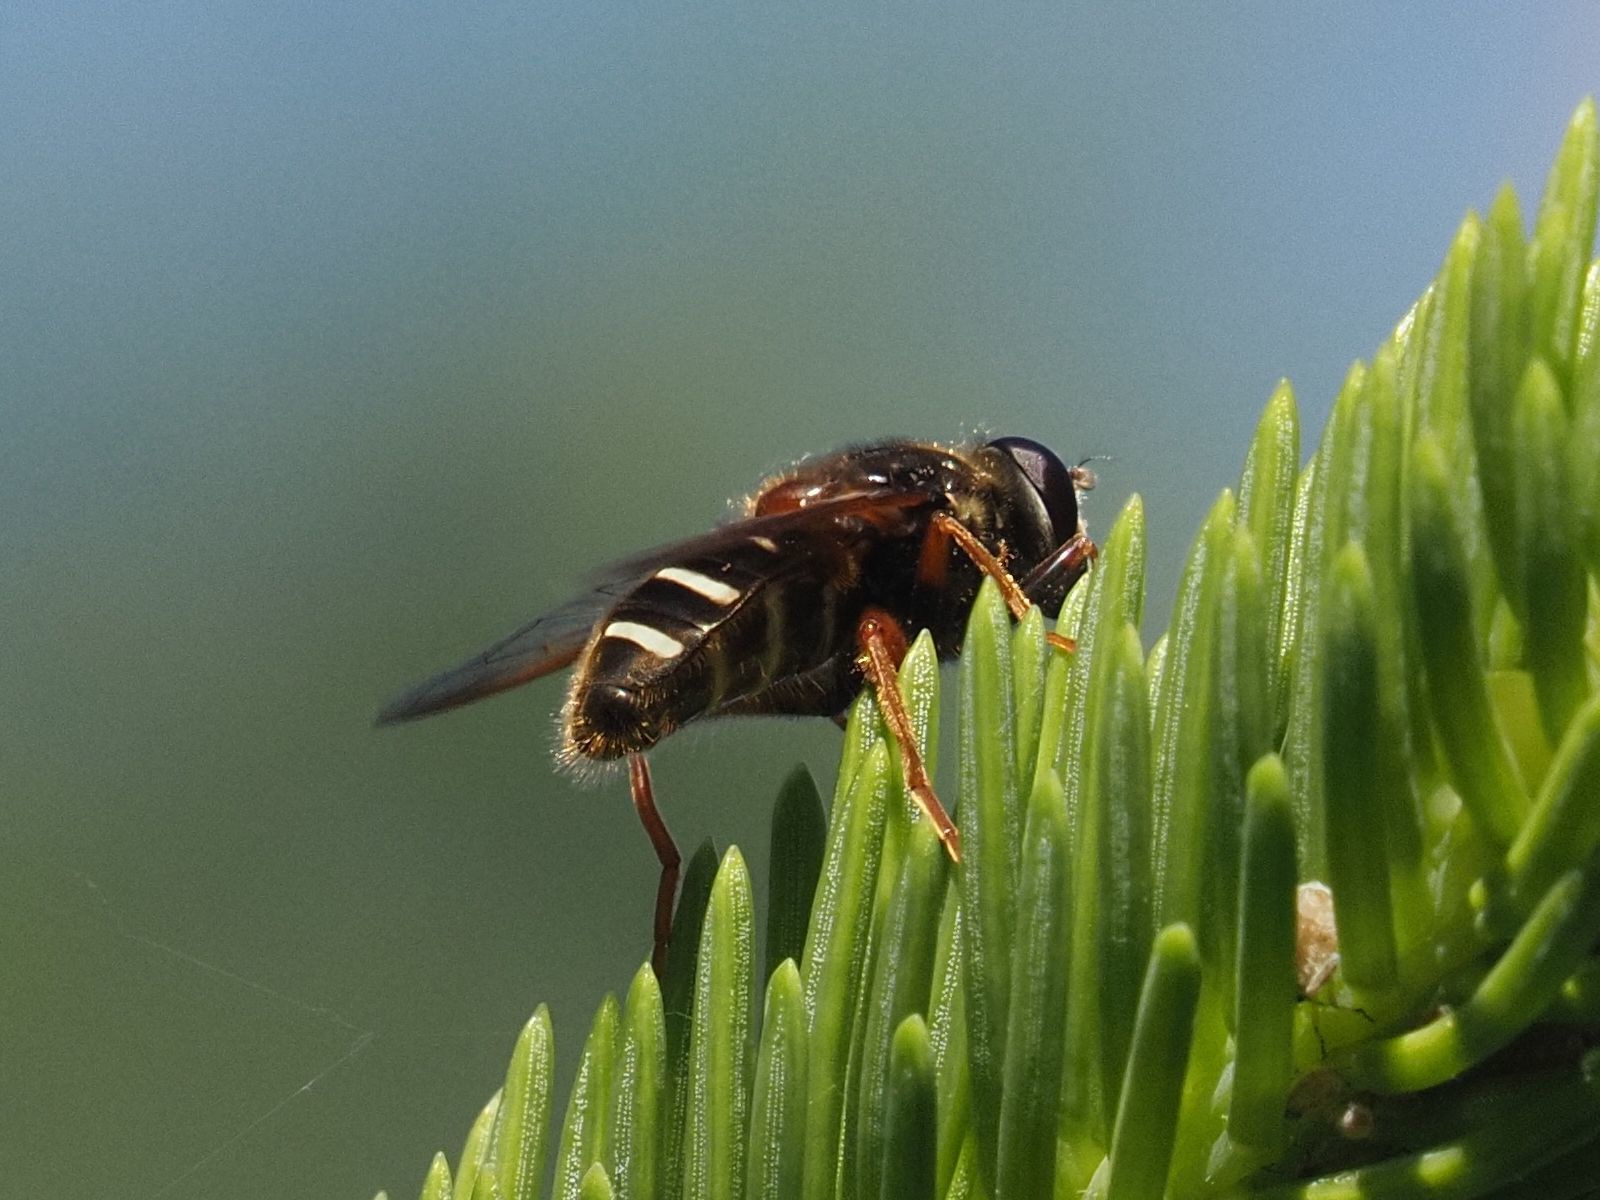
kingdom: Animalia
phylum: Arthropoda
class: Insecta
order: Diptera
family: Syrphidae
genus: Sericomyia
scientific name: Sericomyia lappona
